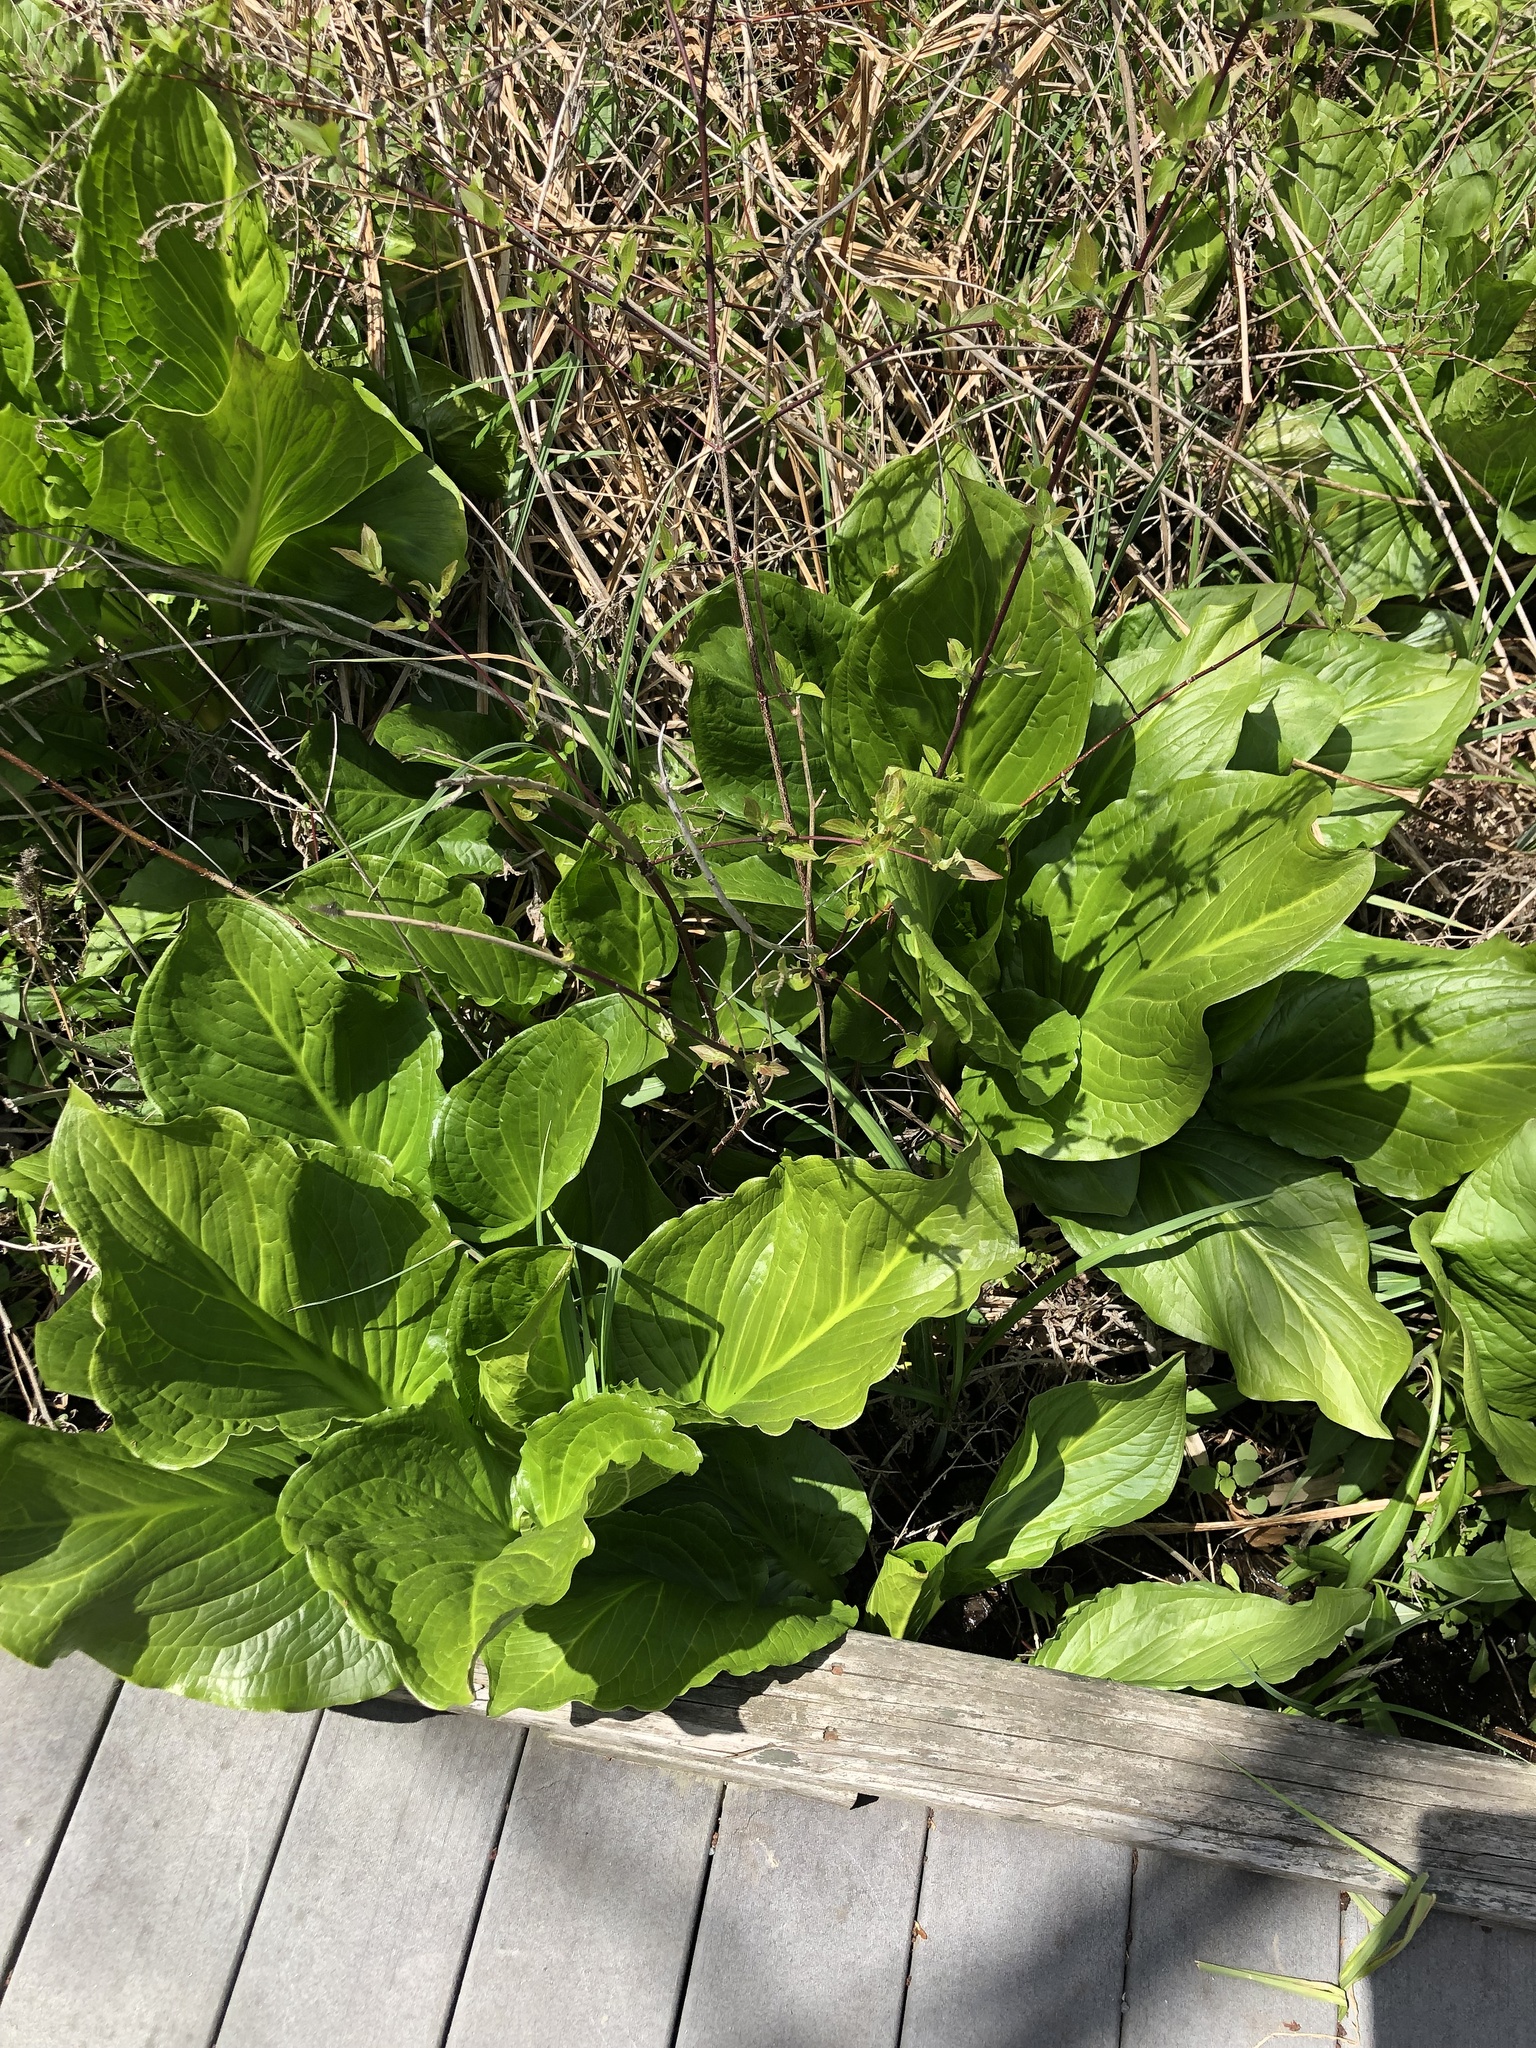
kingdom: Plantae
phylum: Tracheophyta
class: Liliopsida
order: Alismatales
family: Araceae
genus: Symplocarpus
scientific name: Symplocarpus foetidus
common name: Eastern skunk cabbage
